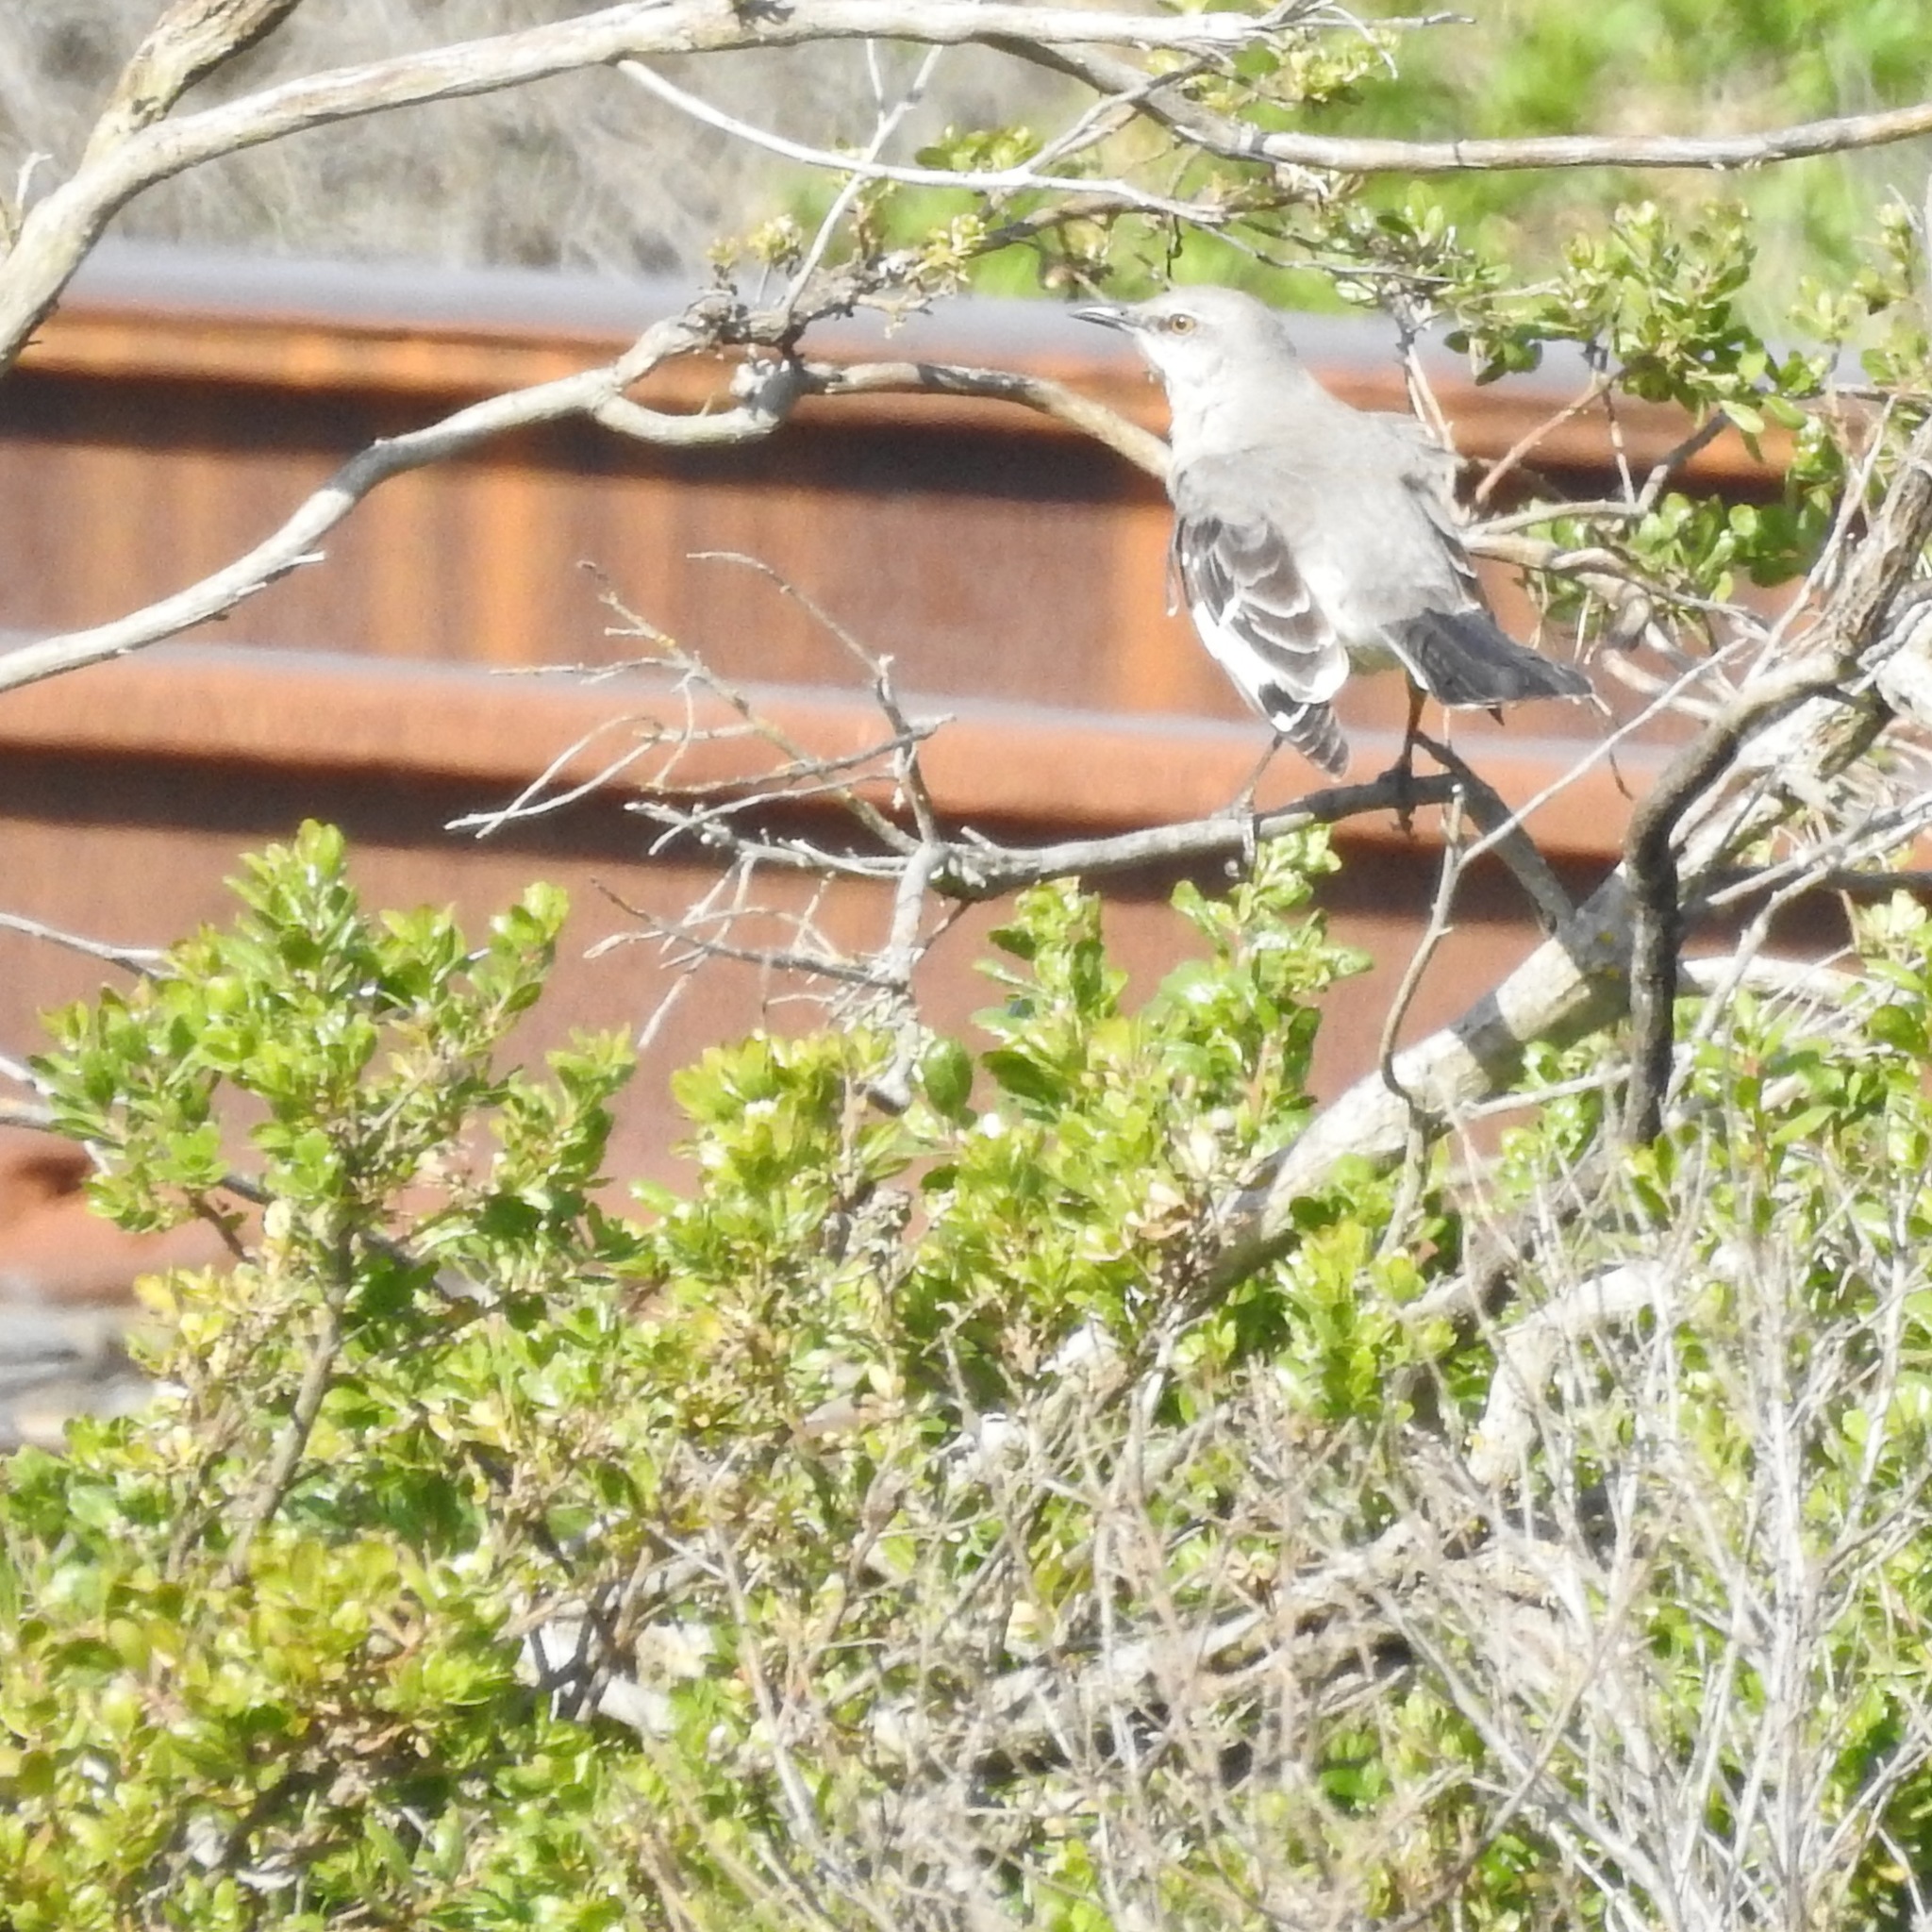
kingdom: Animalia
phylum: Chordata
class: Aves
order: Passeriformes
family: Mimidae
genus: Mimus
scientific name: Mimus polyglottos
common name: Northern mockingbird
